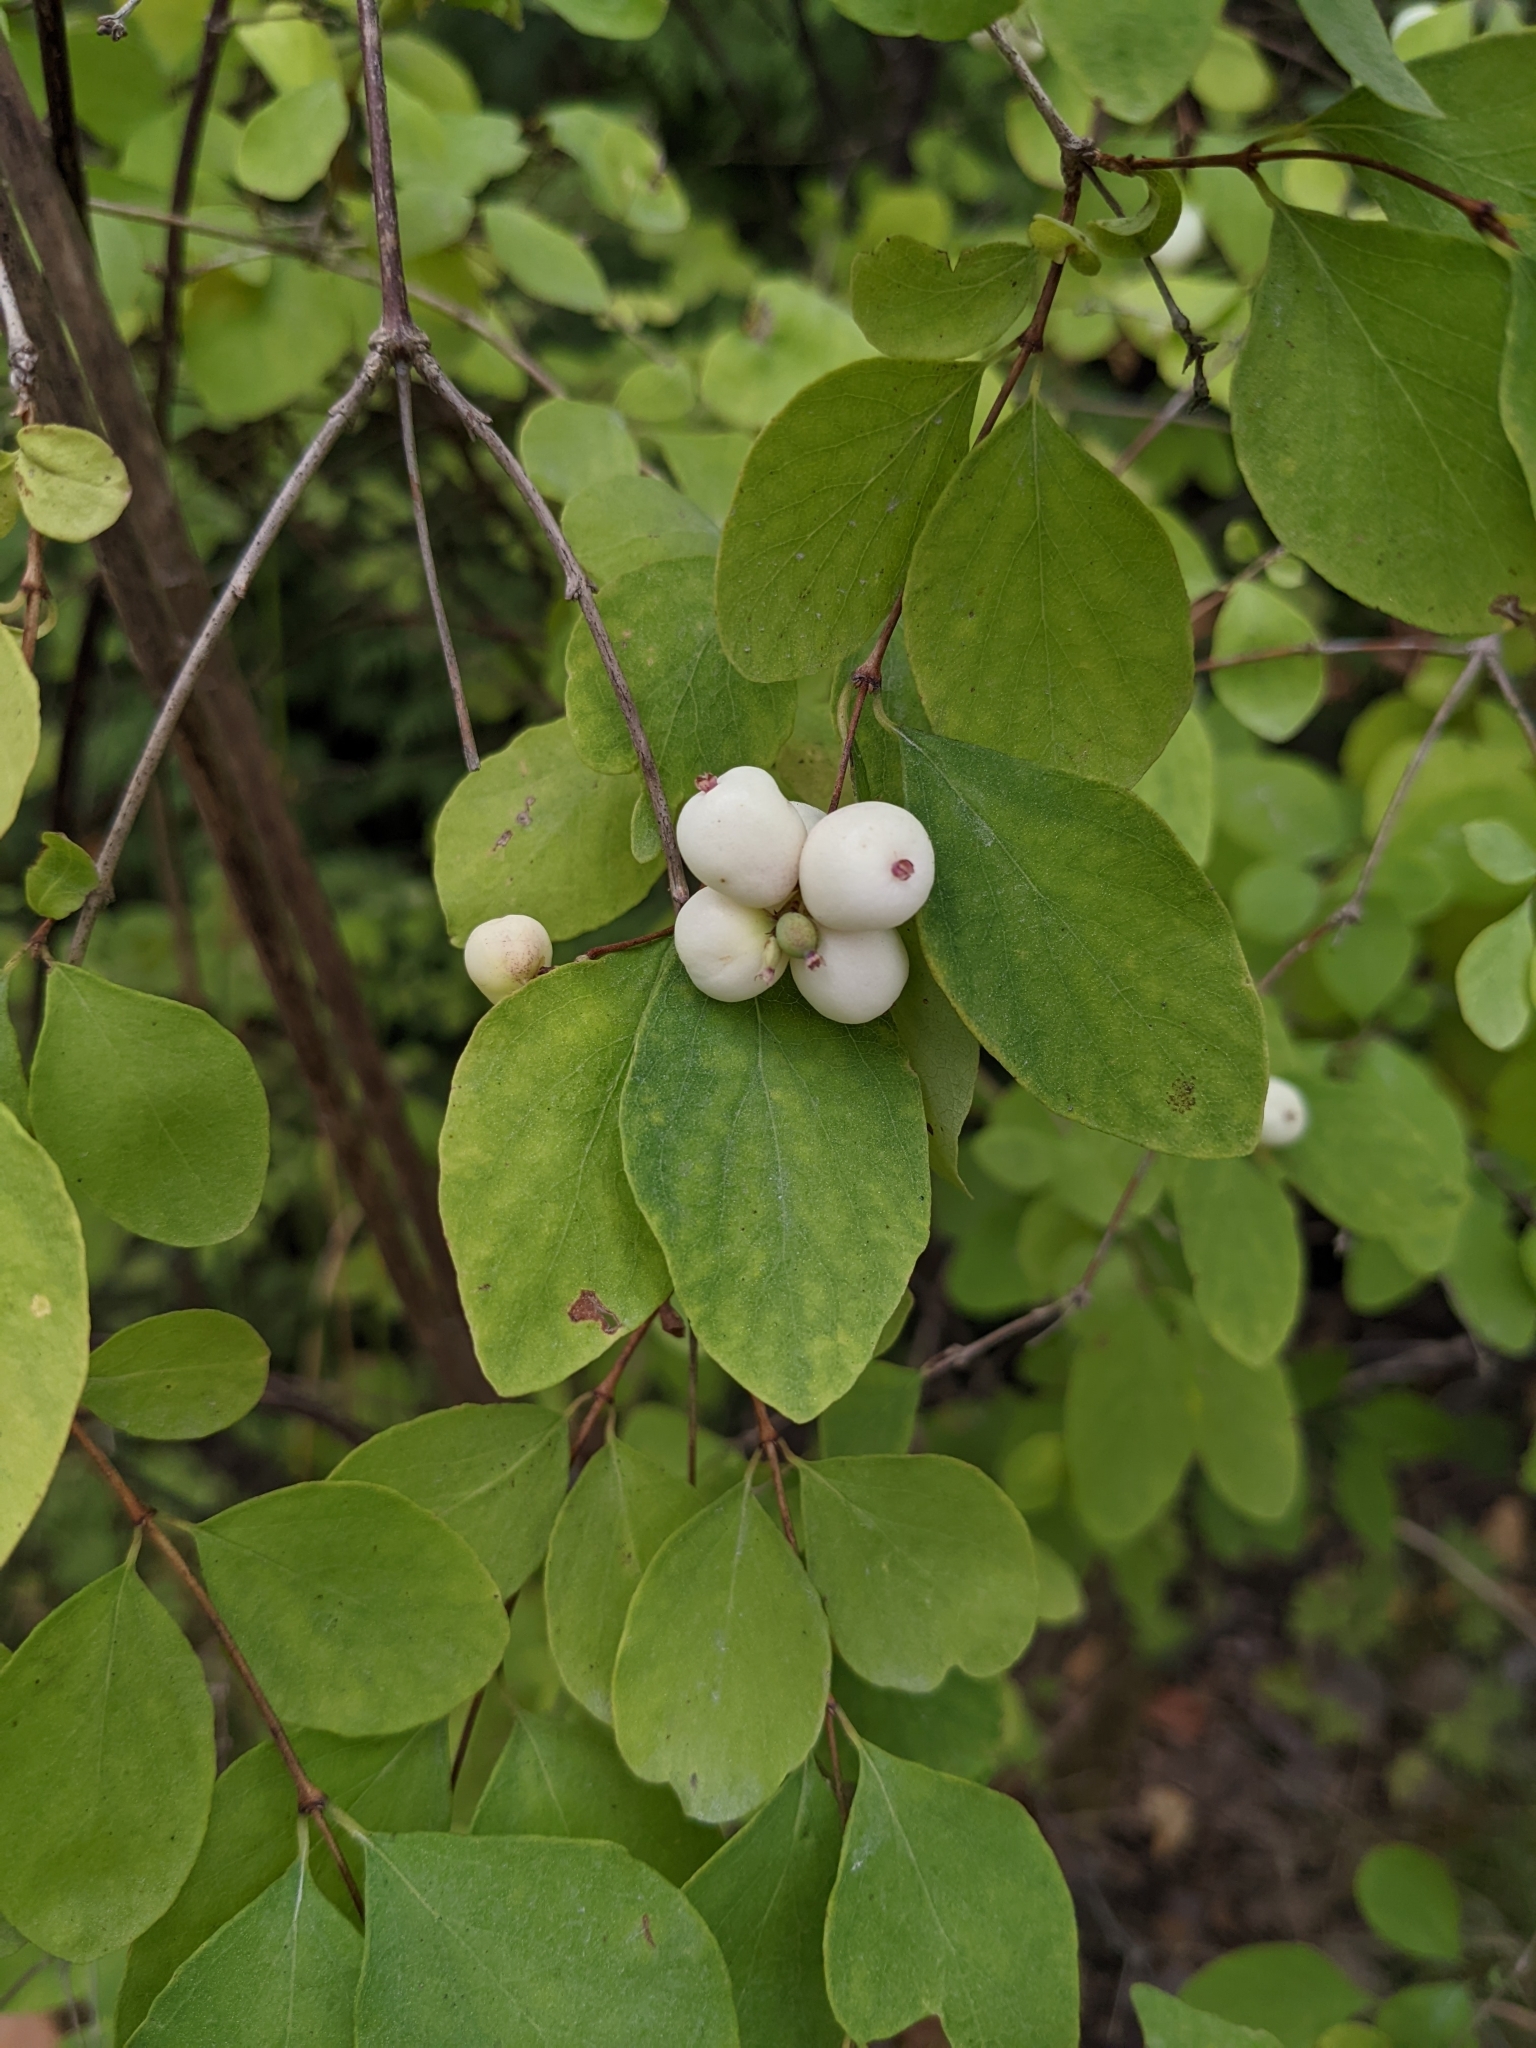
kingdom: Plantae
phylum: Tracheophyta
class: Magnoliopsida
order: Dipsacales
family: Caprifoliaceae
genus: Symphoricarpos
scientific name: Symphoricarpos albus
